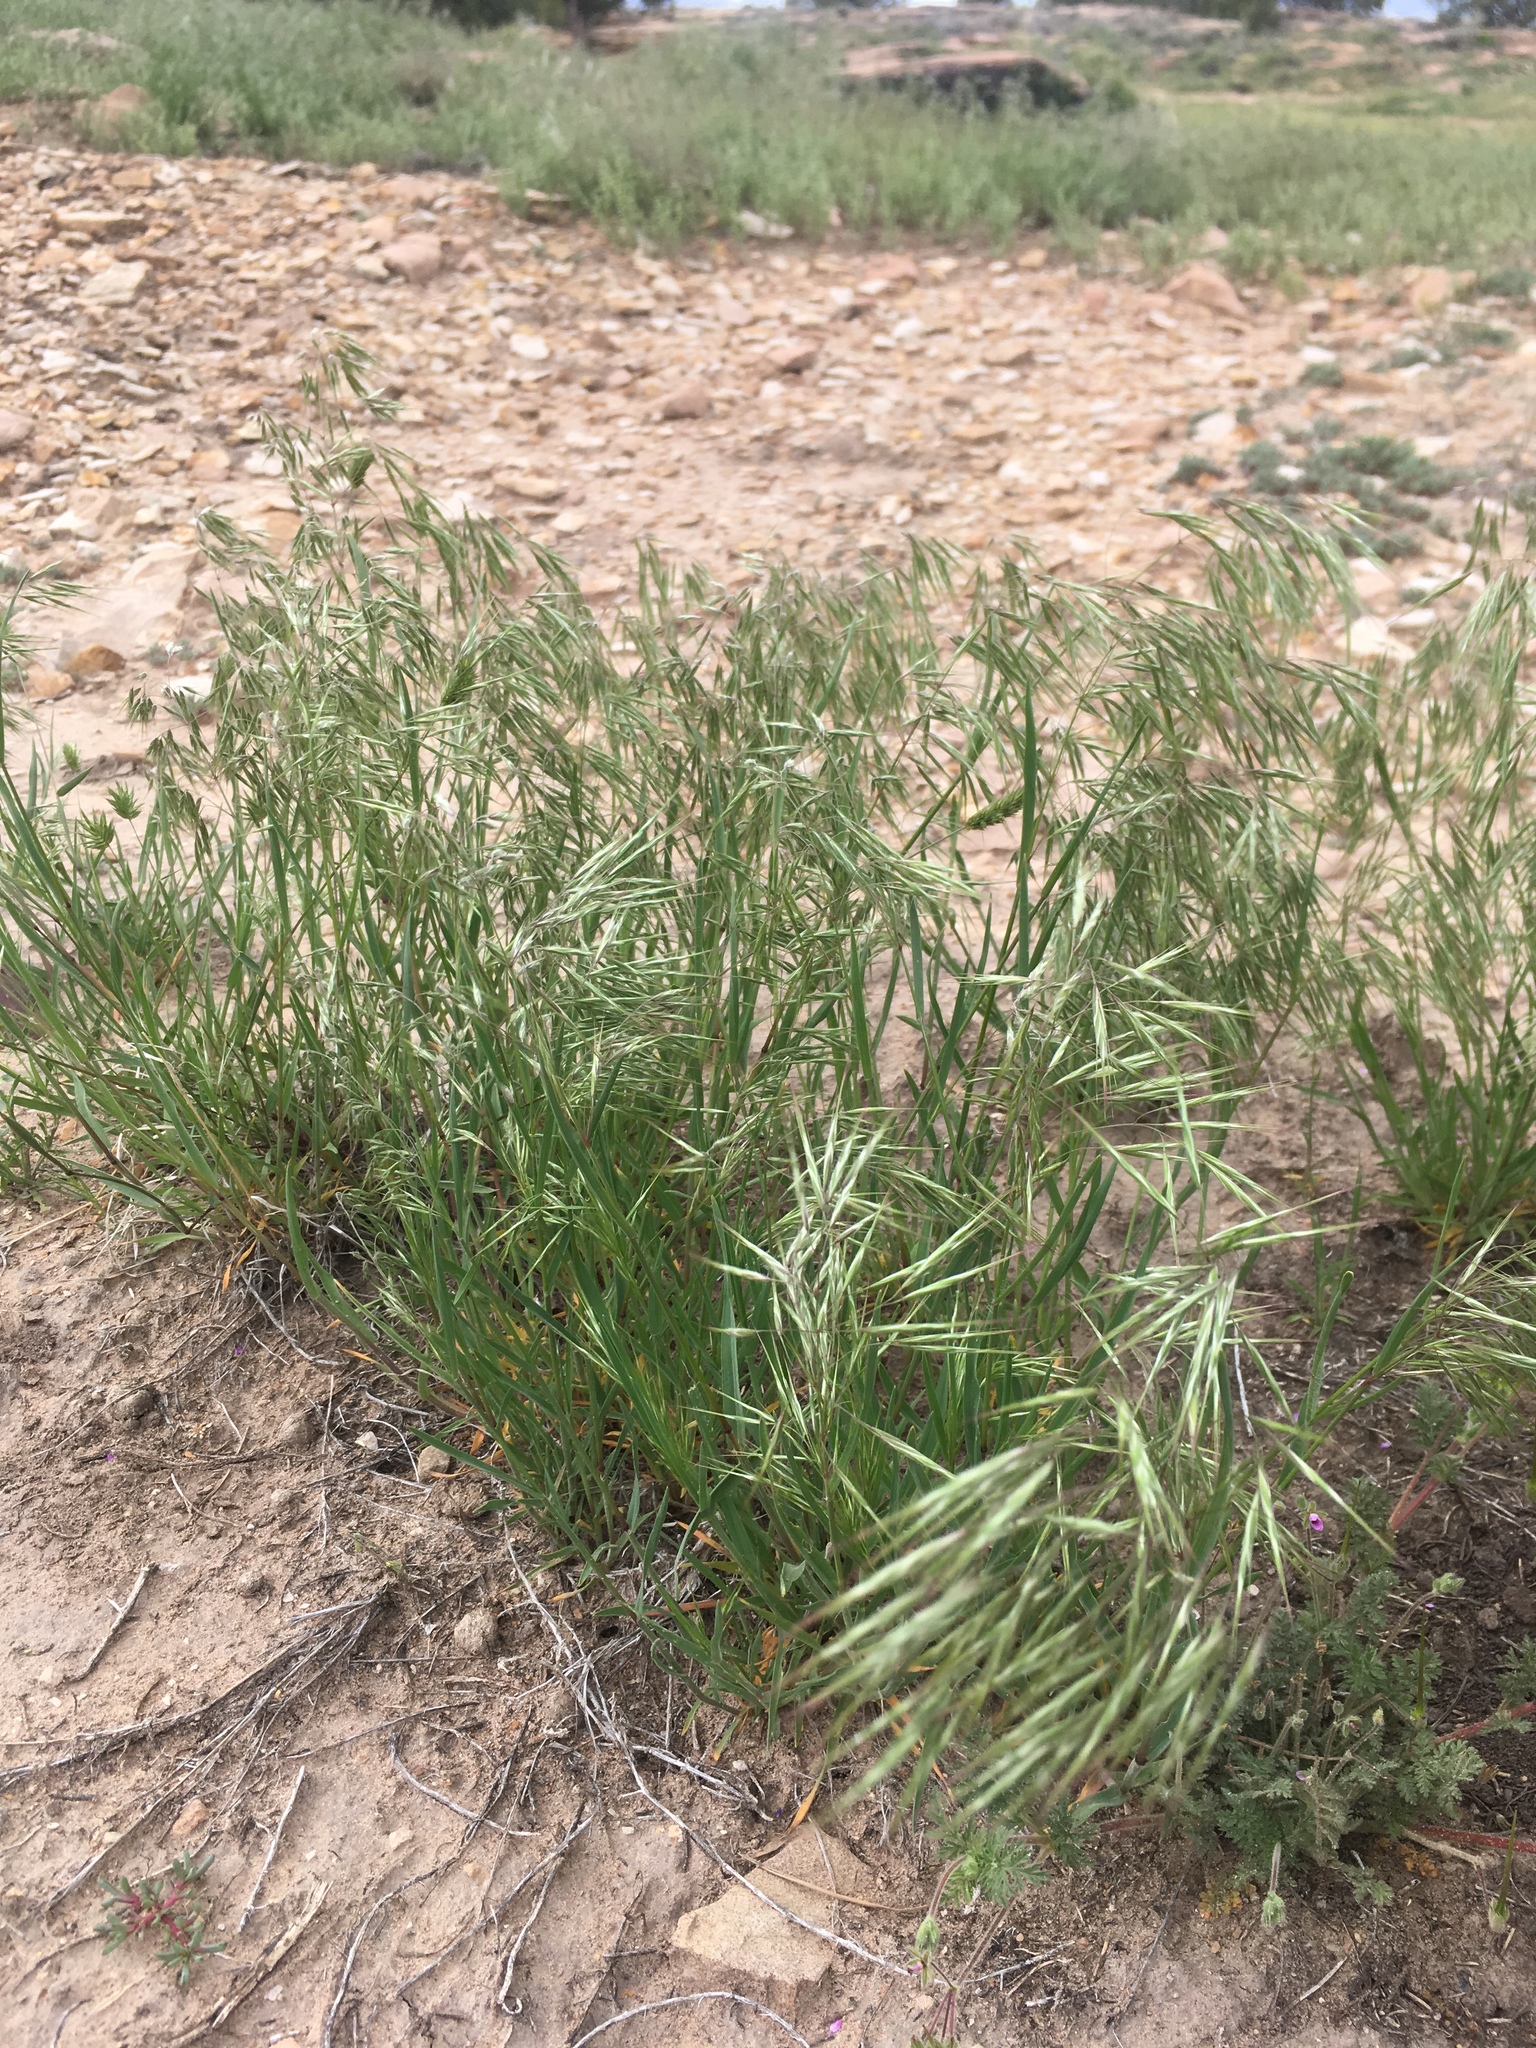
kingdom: Plantae
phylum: Tracheophyta
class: Liliopsida
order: Poales
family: Poaceae
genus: Bromus
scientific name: Bromus tectorum
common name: Cheatgrass
